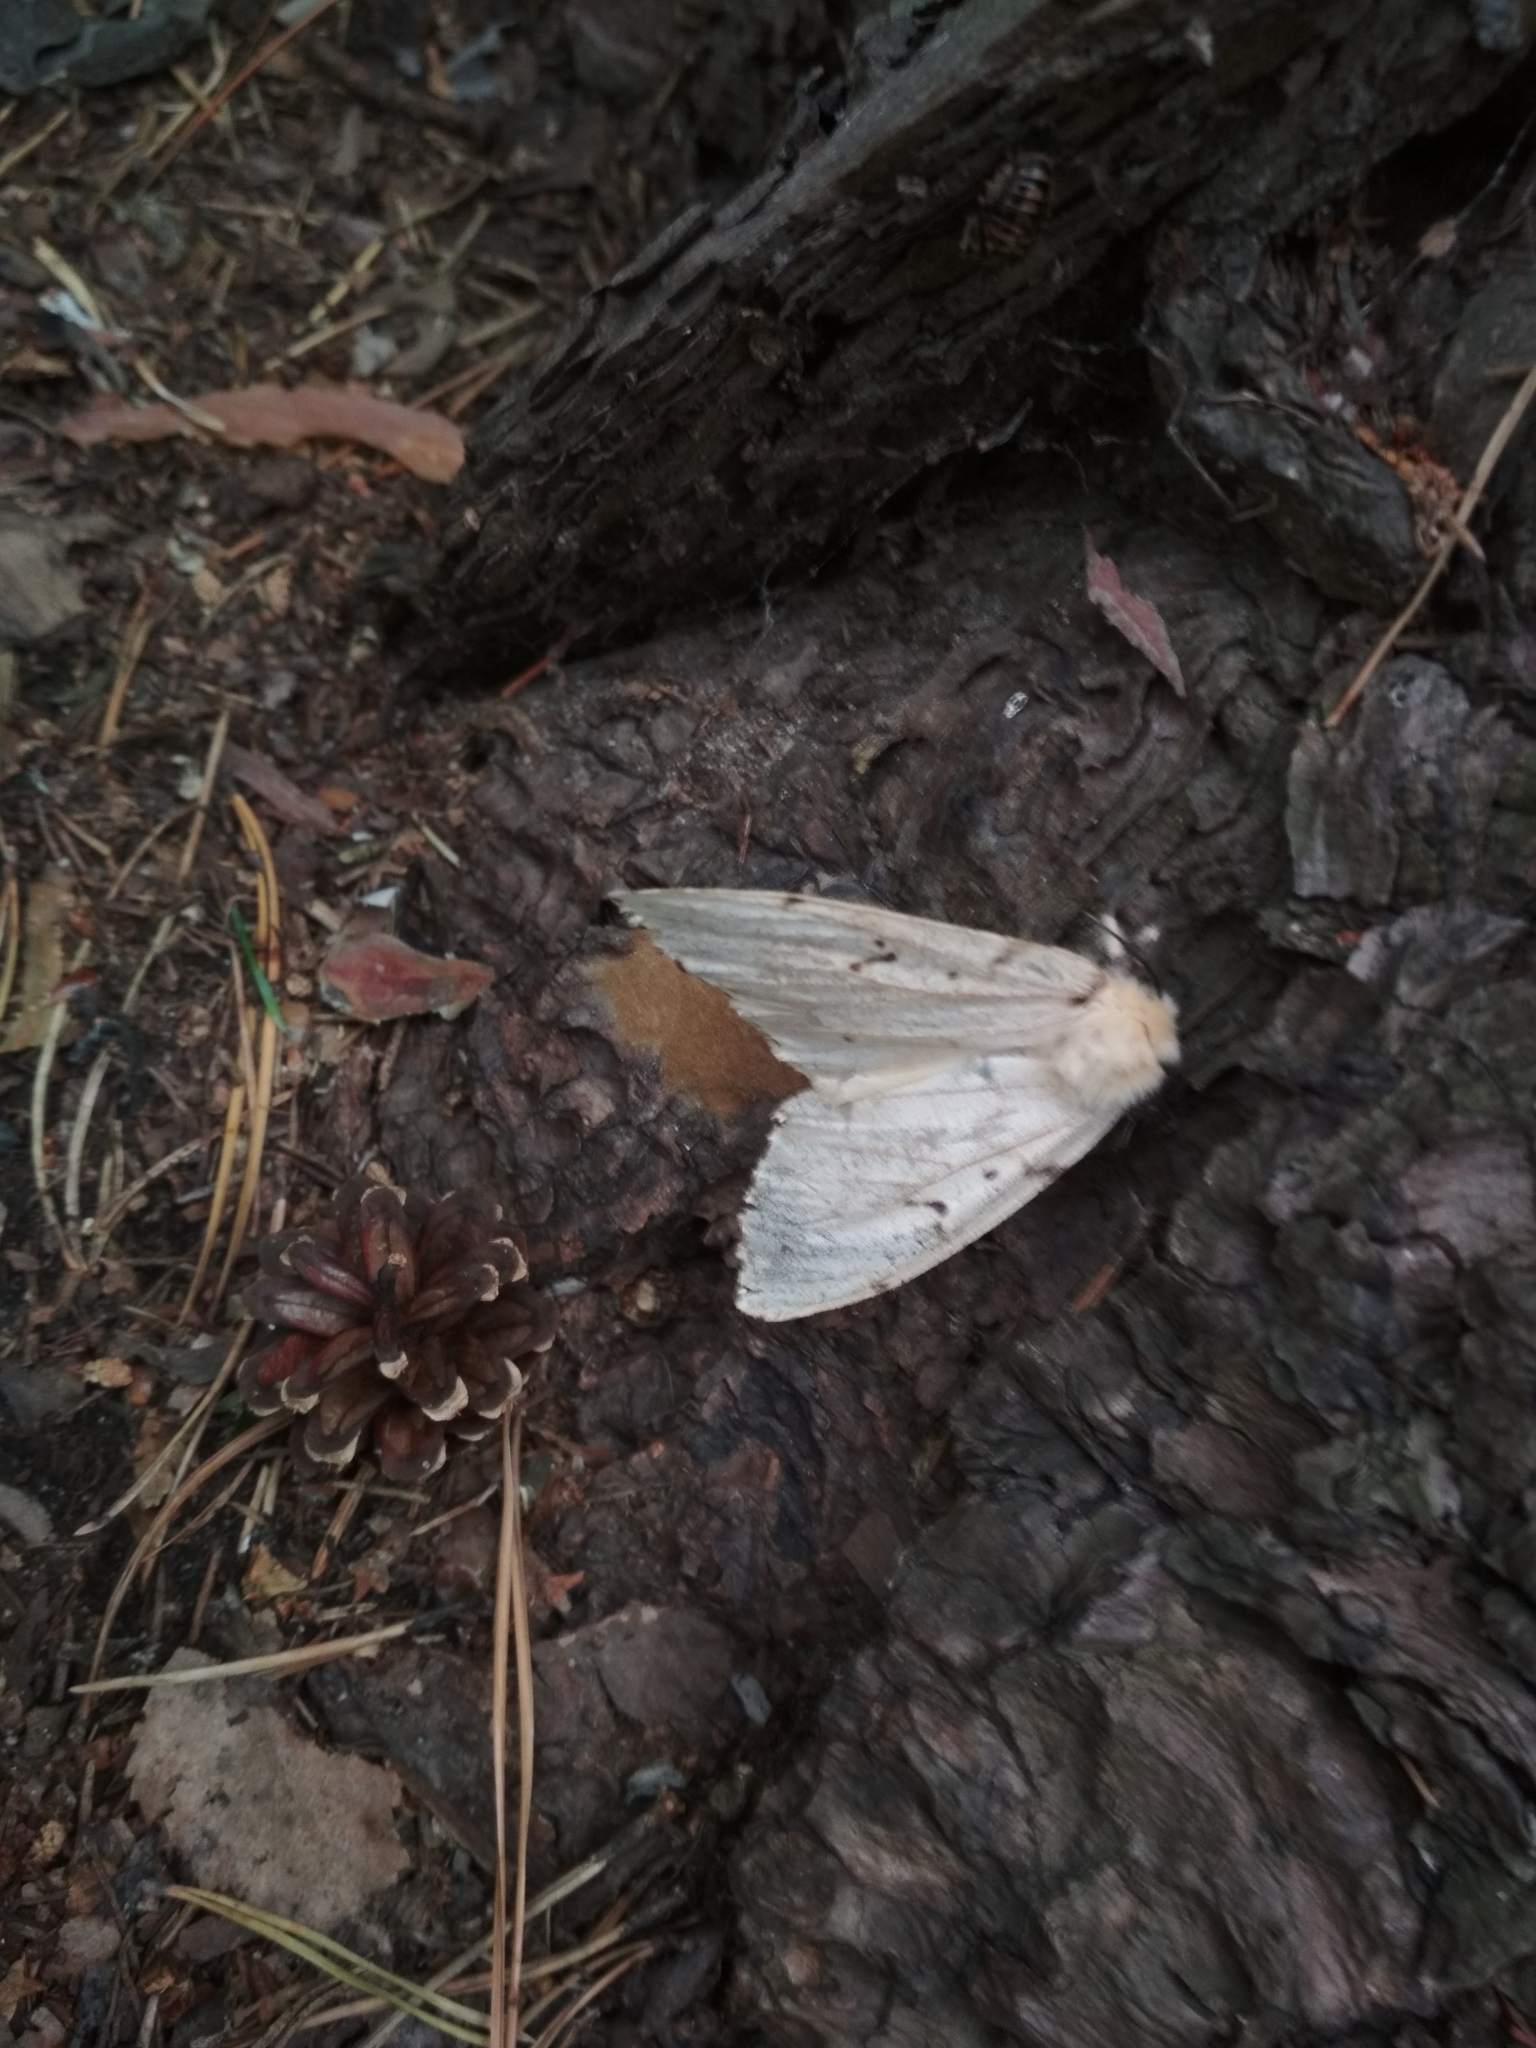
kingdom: Animalia
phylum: Arthropoda
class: Insecta
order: Lepidoptera
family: Erebidae
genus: Lymantria
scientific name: Lymantria dispar
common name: Gypsy moth
